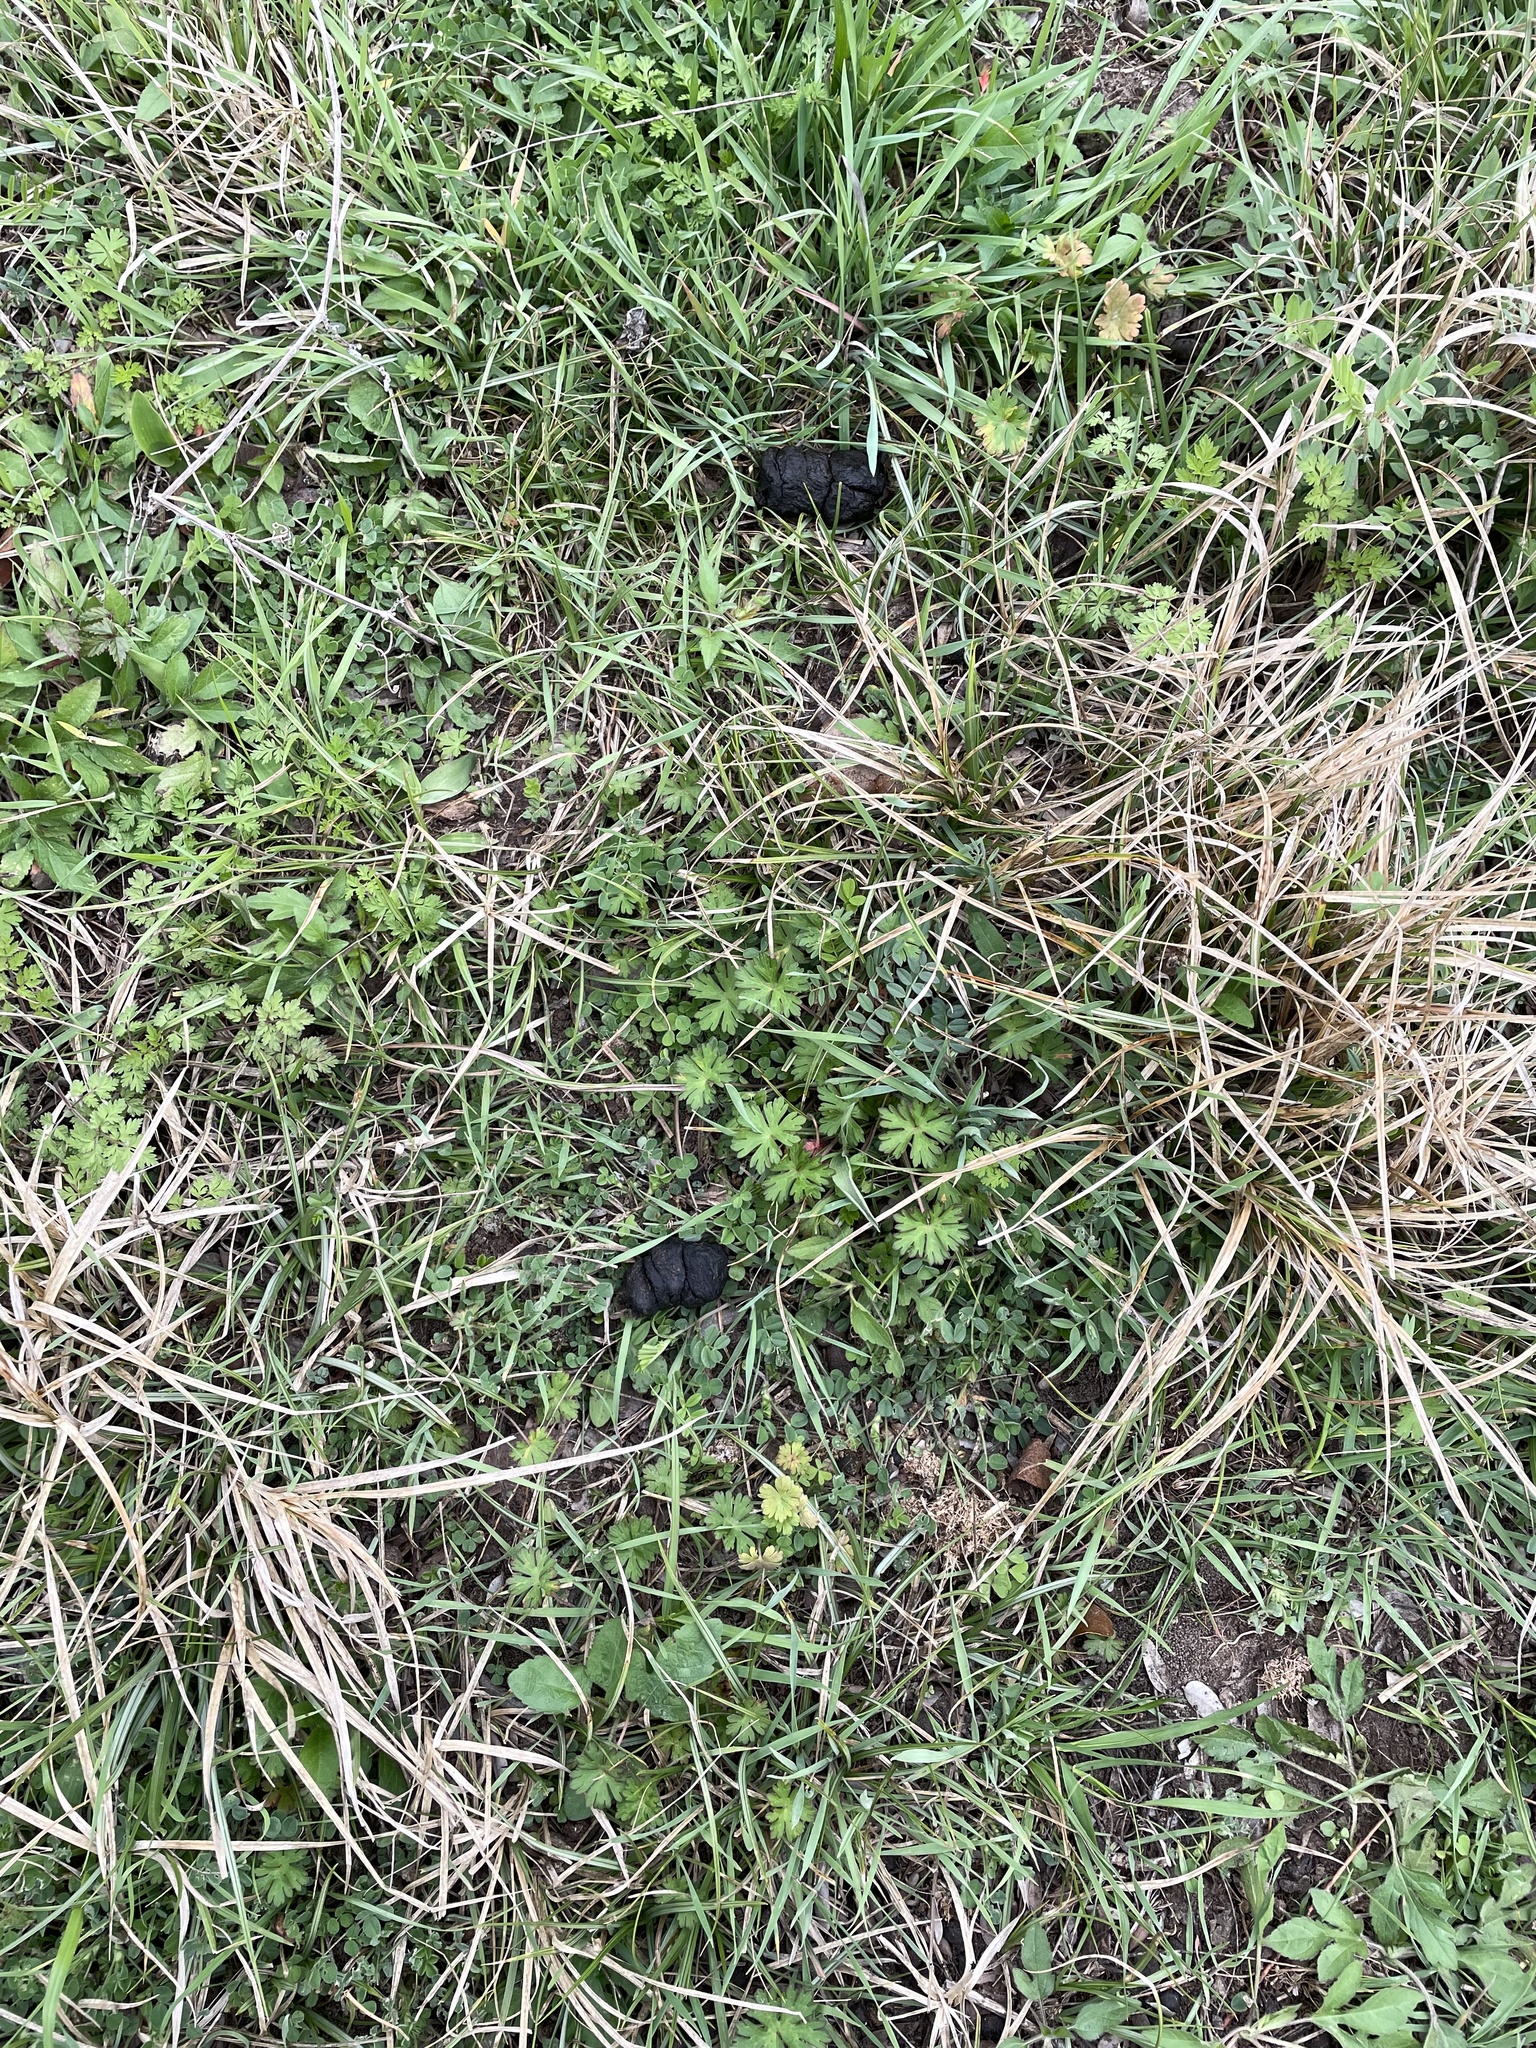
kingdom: Animalia
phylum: Chordata
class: Mammalia
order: Artiodactyla
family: Suidae
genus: Sus
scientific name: Sus scrofa
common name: Wild boar
